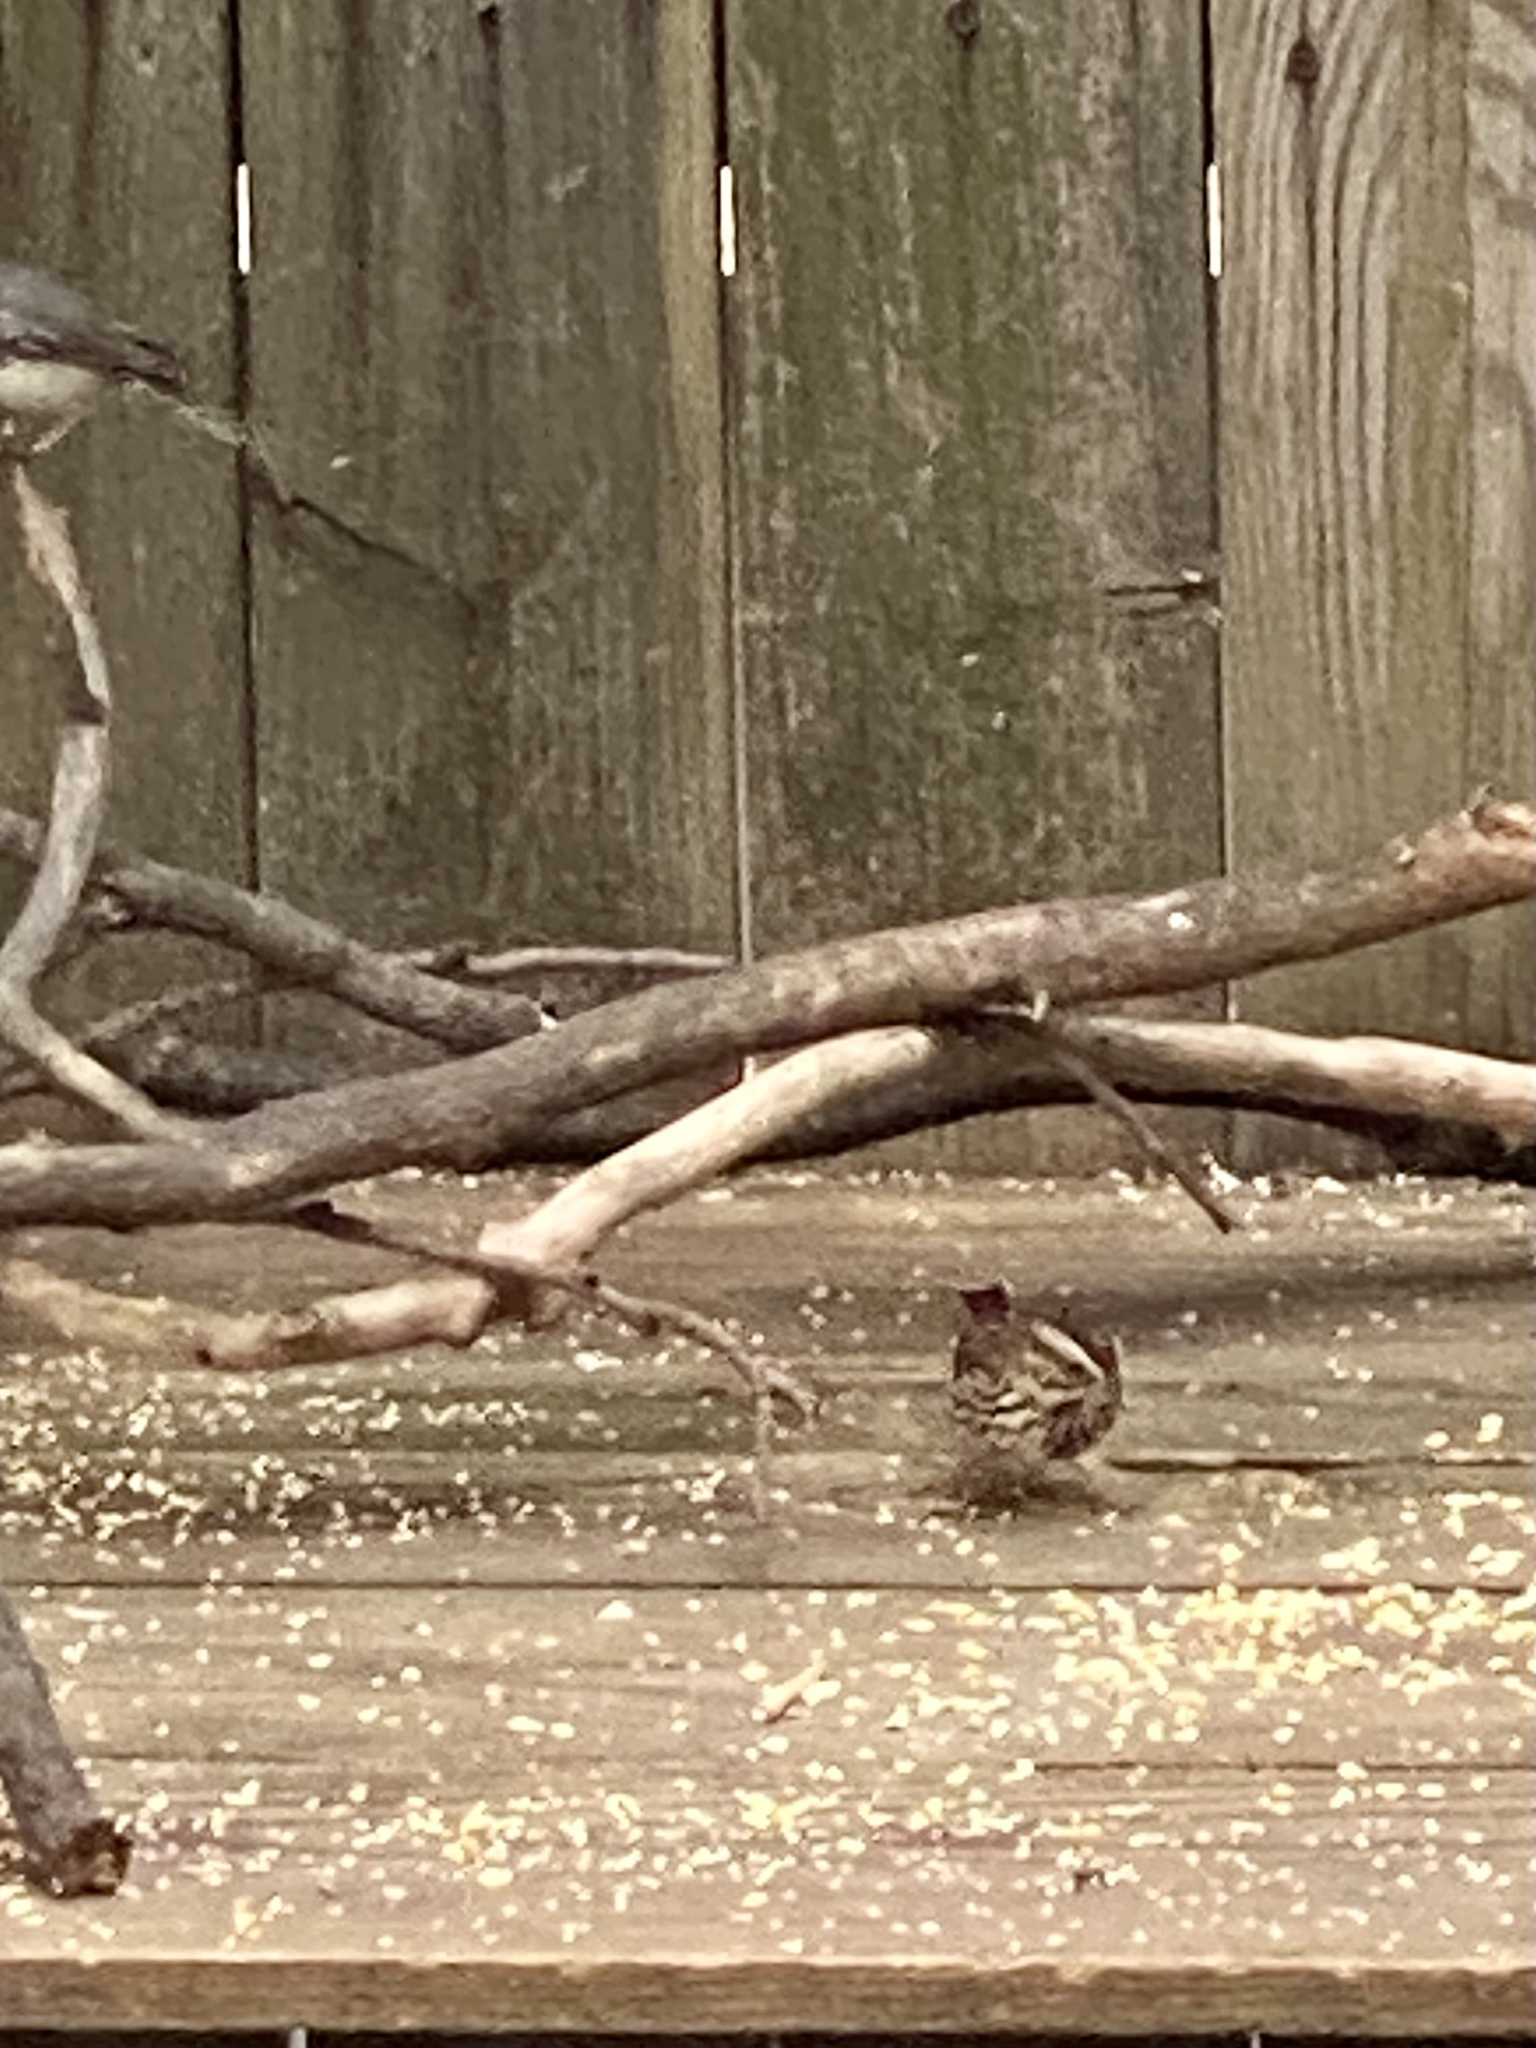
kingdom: Animalia
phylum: Chordata
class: Aves
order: Passeriformes
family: Passerellidae
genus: Melospiza
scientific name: Melospiza melodia
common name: Song sparrow
